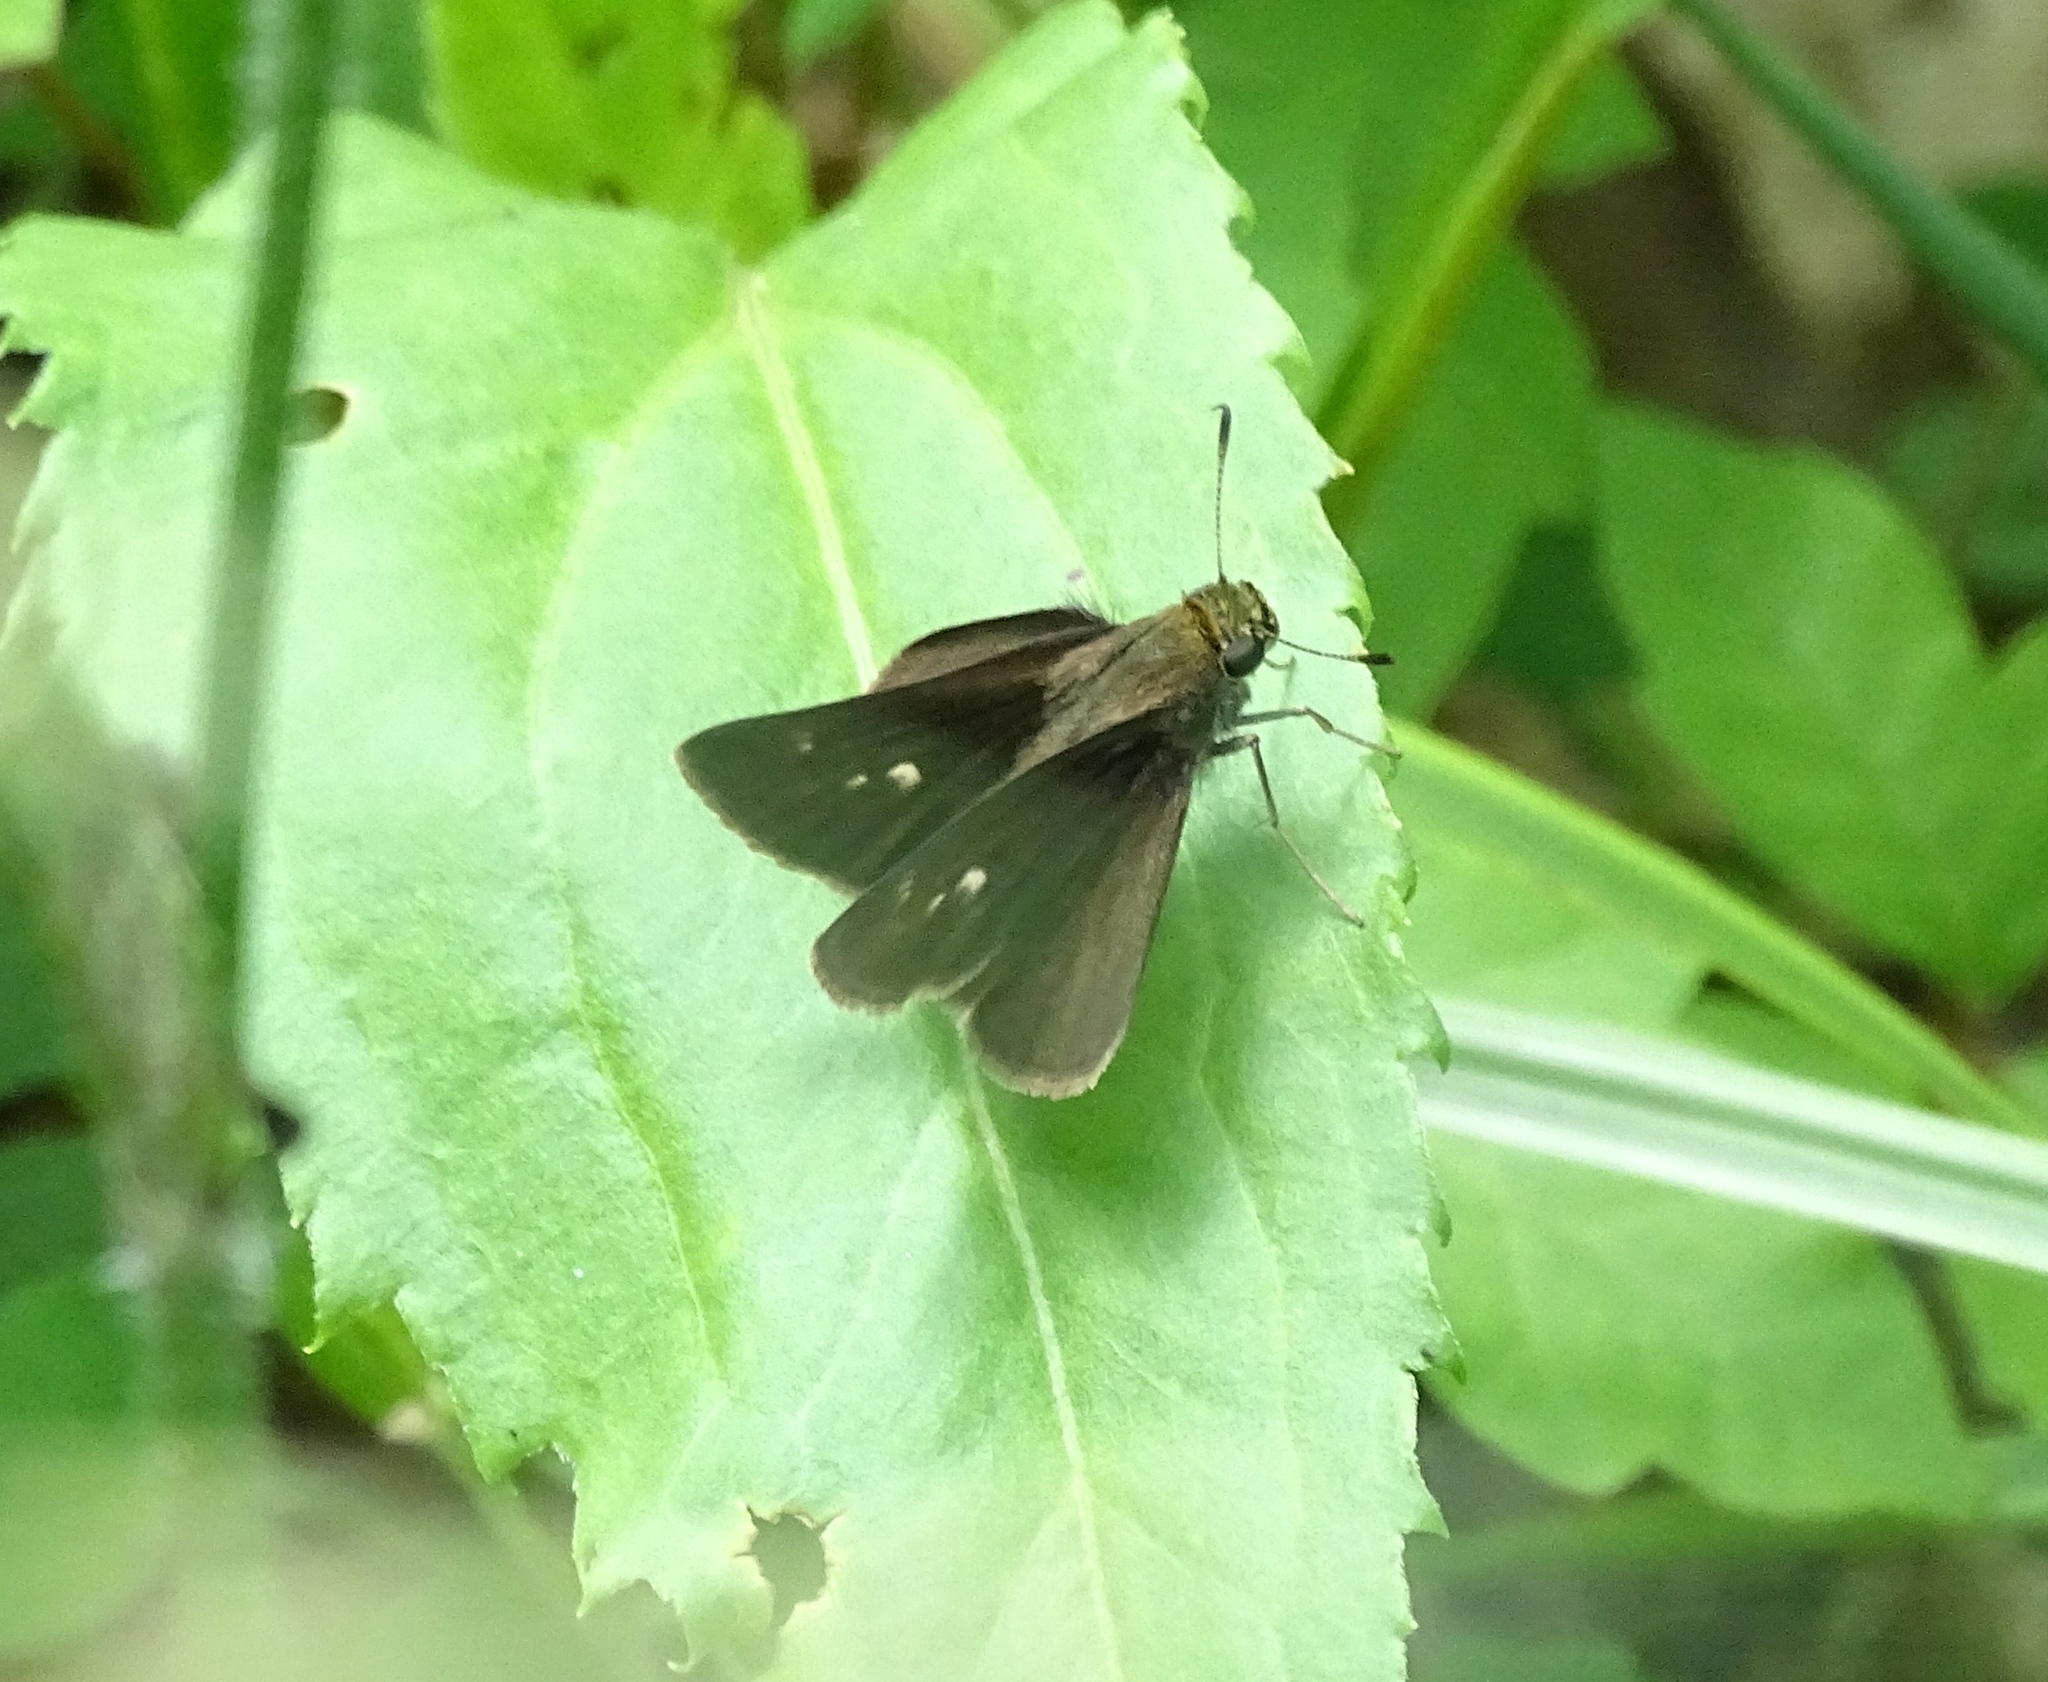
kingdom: Animalia
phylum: Arthropoda
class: Insecta
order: Lepidoptera
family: Hesperiidae
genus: Euphyes
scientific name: Euphyes vestris
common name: Dun skipper
